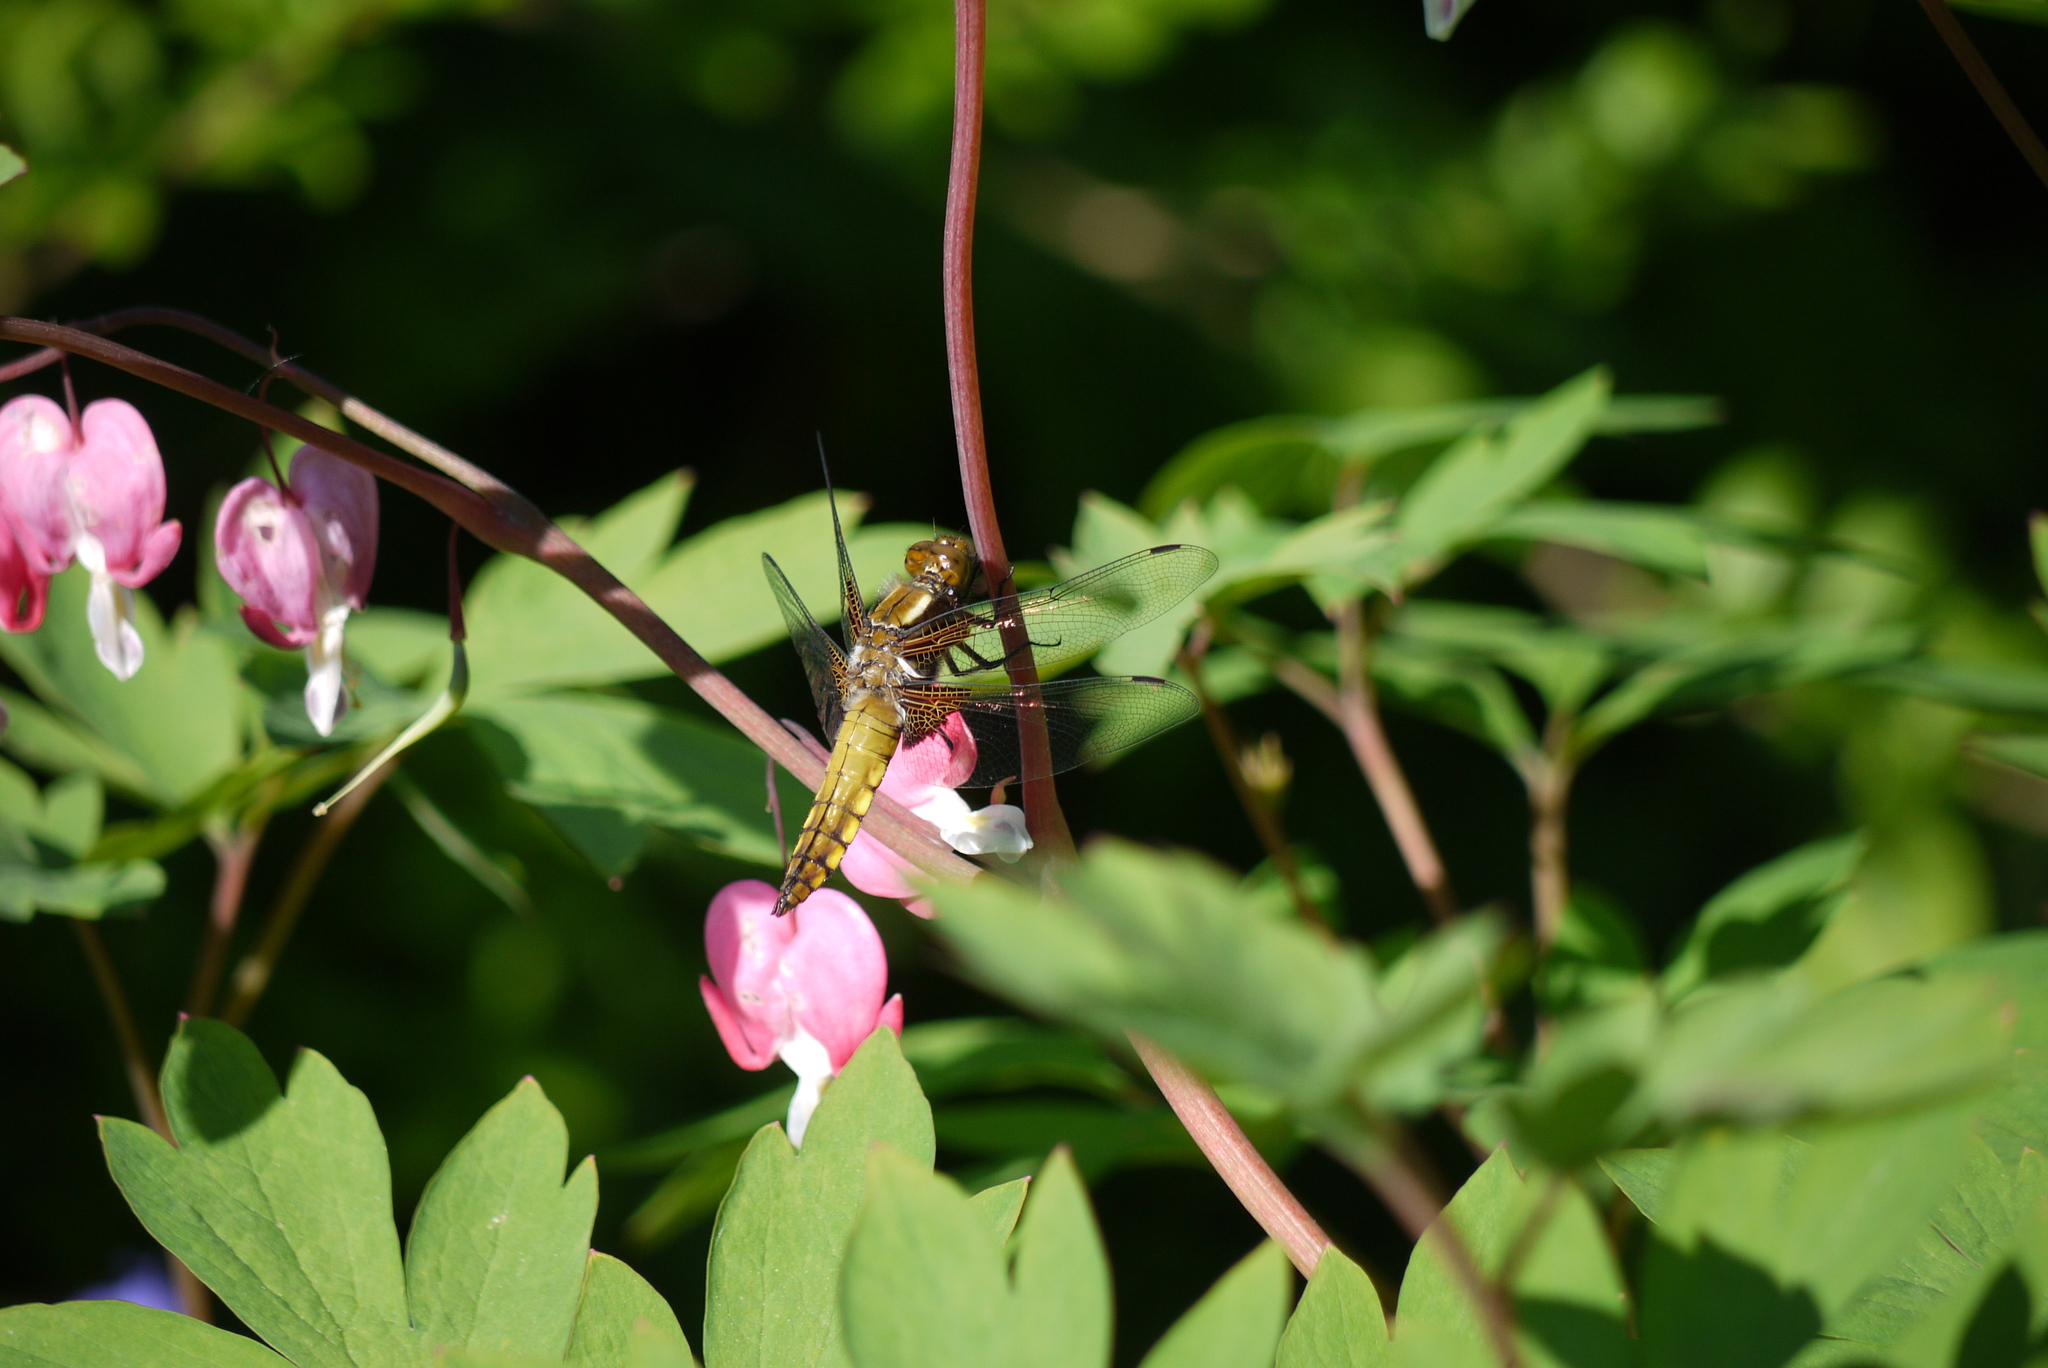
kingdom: Animalia
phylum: Arthropoda
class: Insecta
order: Odonata
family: Libellulidae
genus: Libellula
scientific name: Libellula depressa
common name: Broad-bodied chaser
